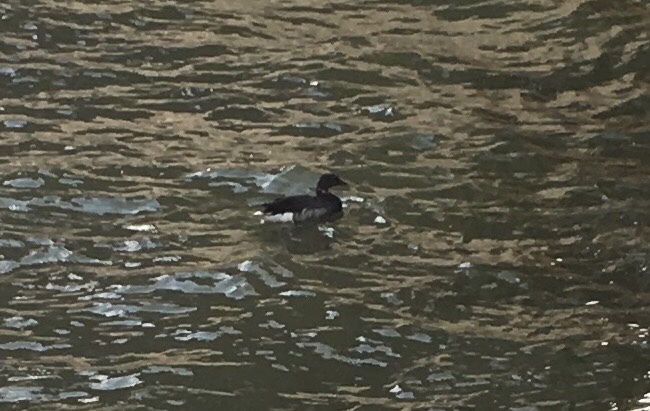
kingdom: Animalia
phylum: Chordata
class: Aves
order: Anseriformes
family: Anatidae
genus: Branta
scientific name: Branta bernicla
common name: Brant goose
